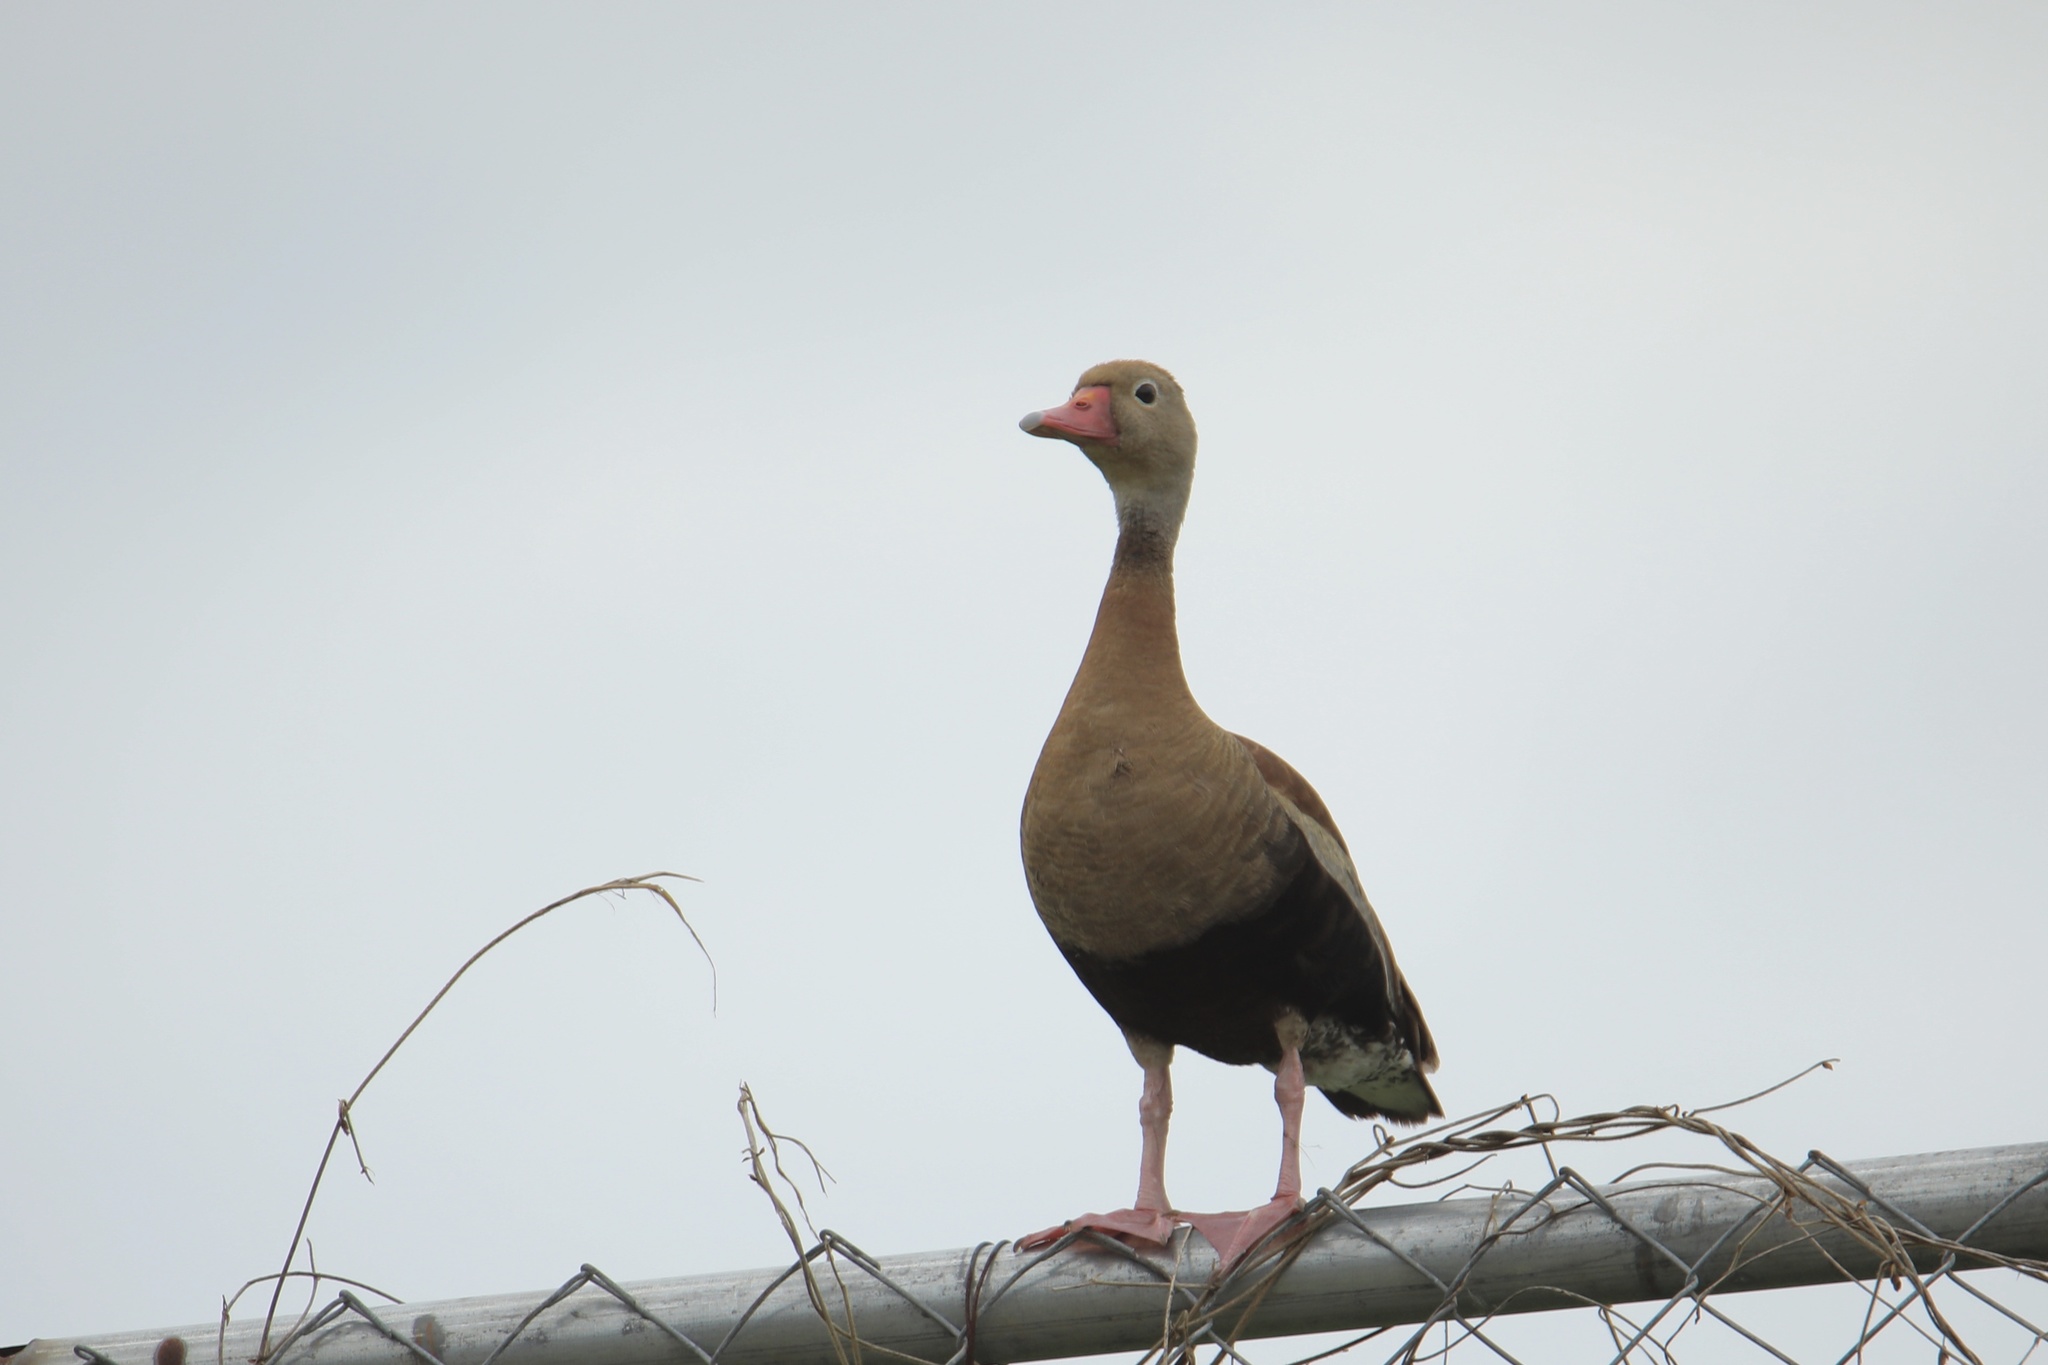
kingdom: Animalia
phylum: Chordata
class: Aves
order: Anseriformes
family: Anatidae
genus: Dendrocygna
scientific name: Dendrocygna autumnalis
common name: Black-bellied whistling duck
